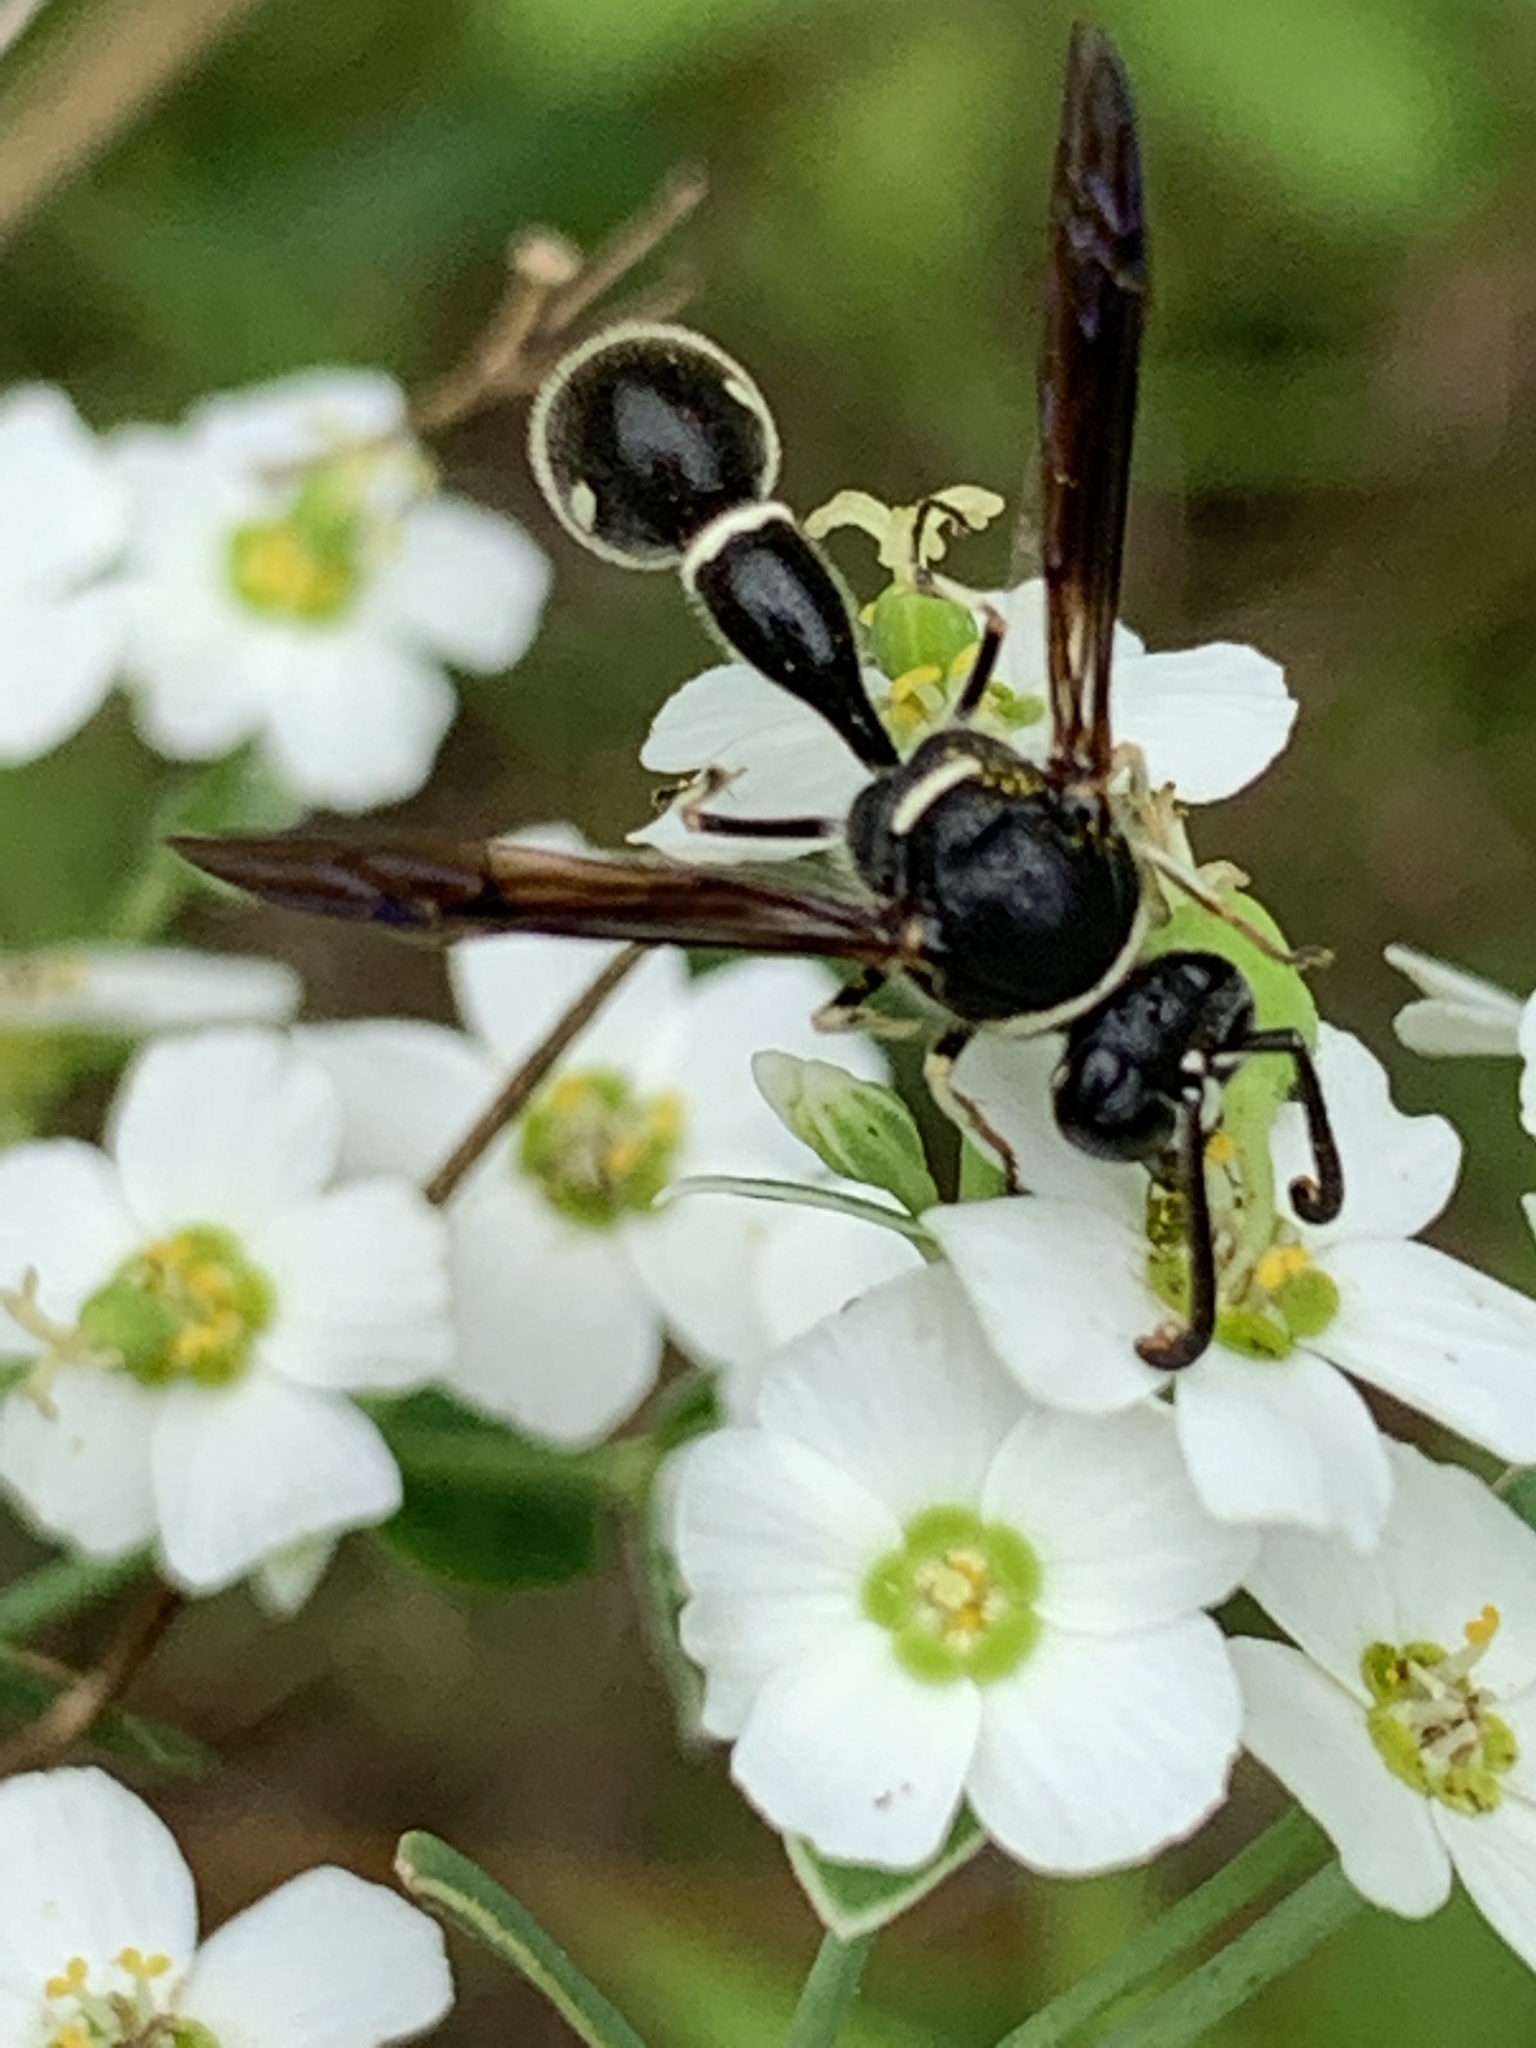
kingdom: Animalia
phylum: Arthropoda
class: Insecta
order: Hymenoptera
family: Vespidae
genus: Eumenes
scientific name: Eumenes fraternus
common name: Fraternal potter wasp
